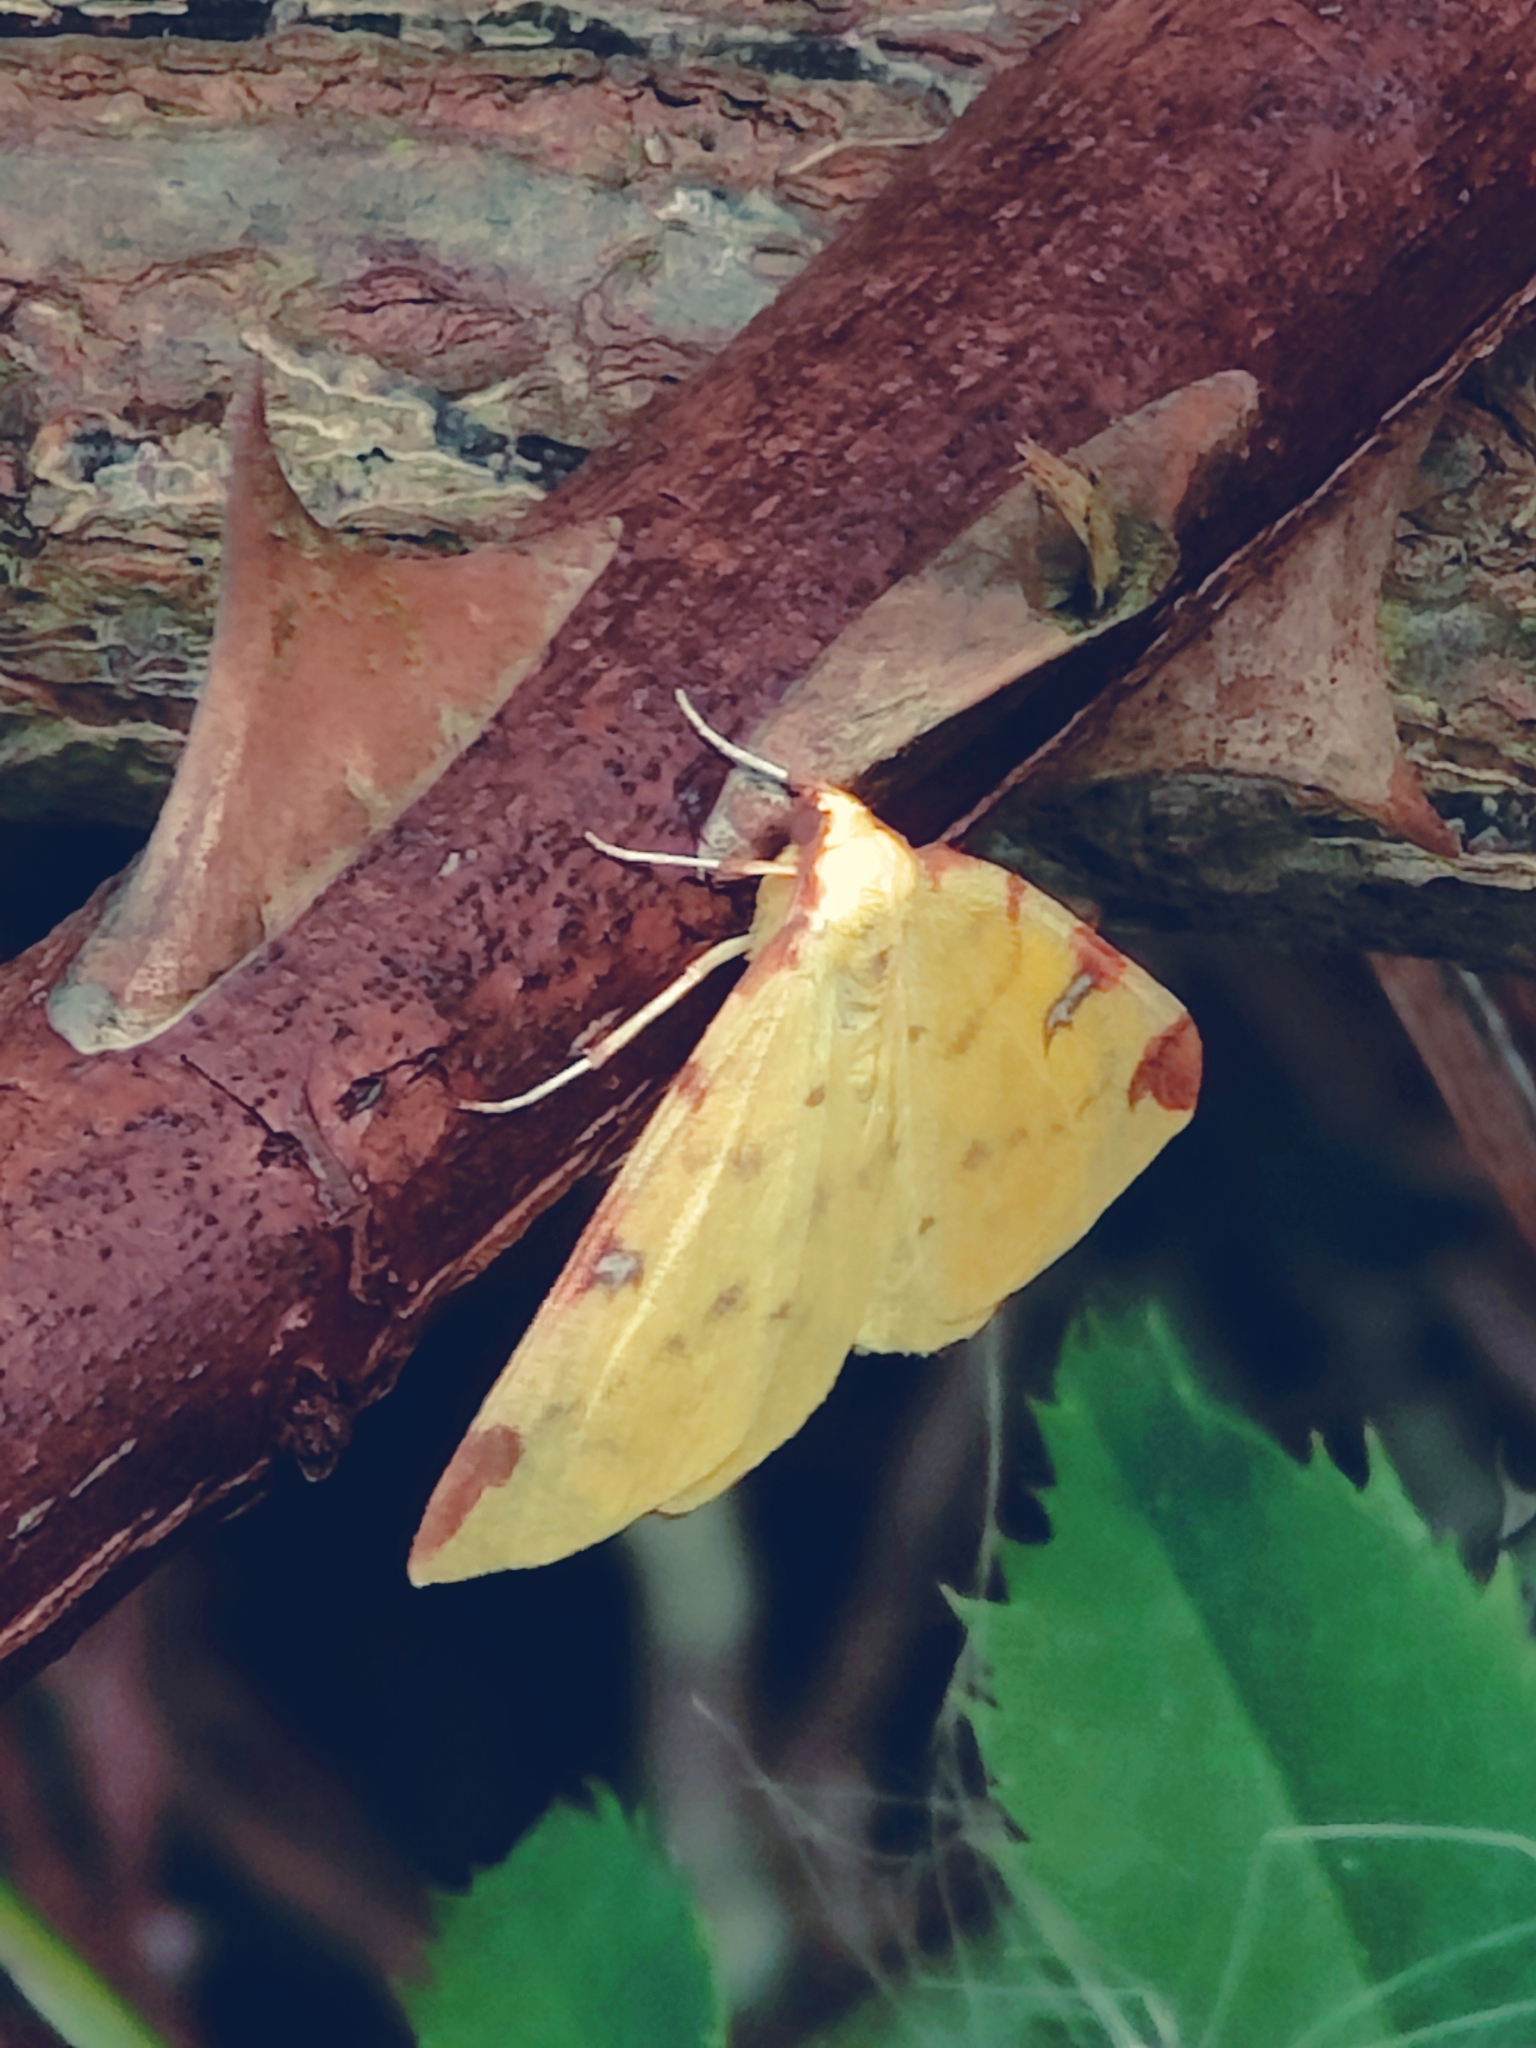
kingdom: Animalia
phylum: Arthropoda
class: Insecta
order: Lepidoptera
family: Geometridae
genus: Opisthograptis
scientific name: Opisthograptis luteolata
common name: Brimstone moth
